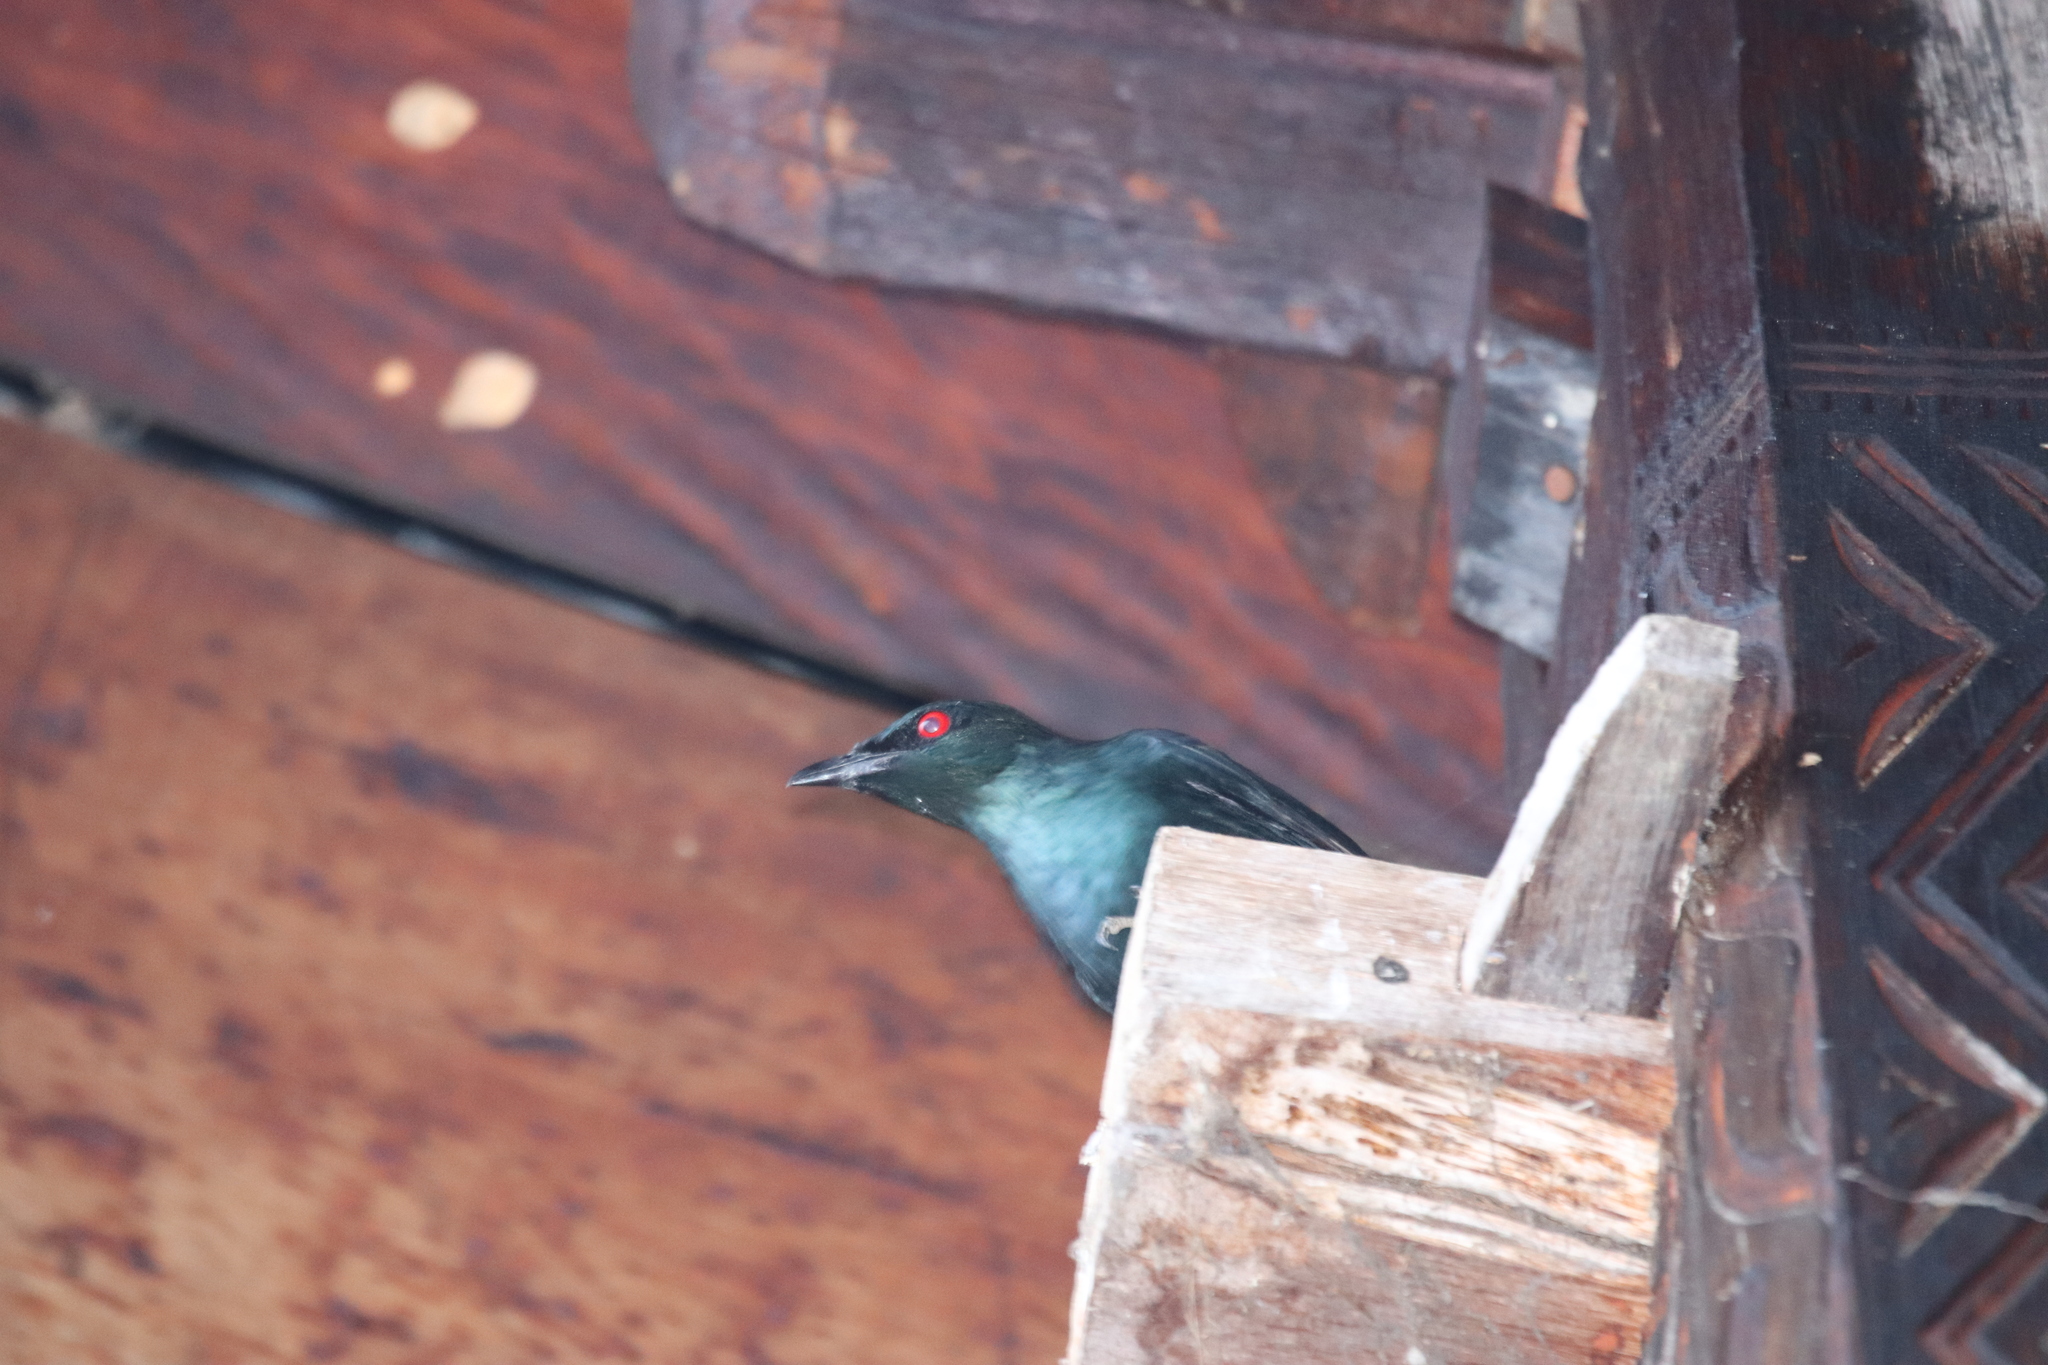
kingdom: Animalia
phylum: Chordata
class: Aves
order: Passeriformes
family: Sturnidae
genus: Aplonis
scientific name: Aplonis panayensis
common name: Asian glossy starling
